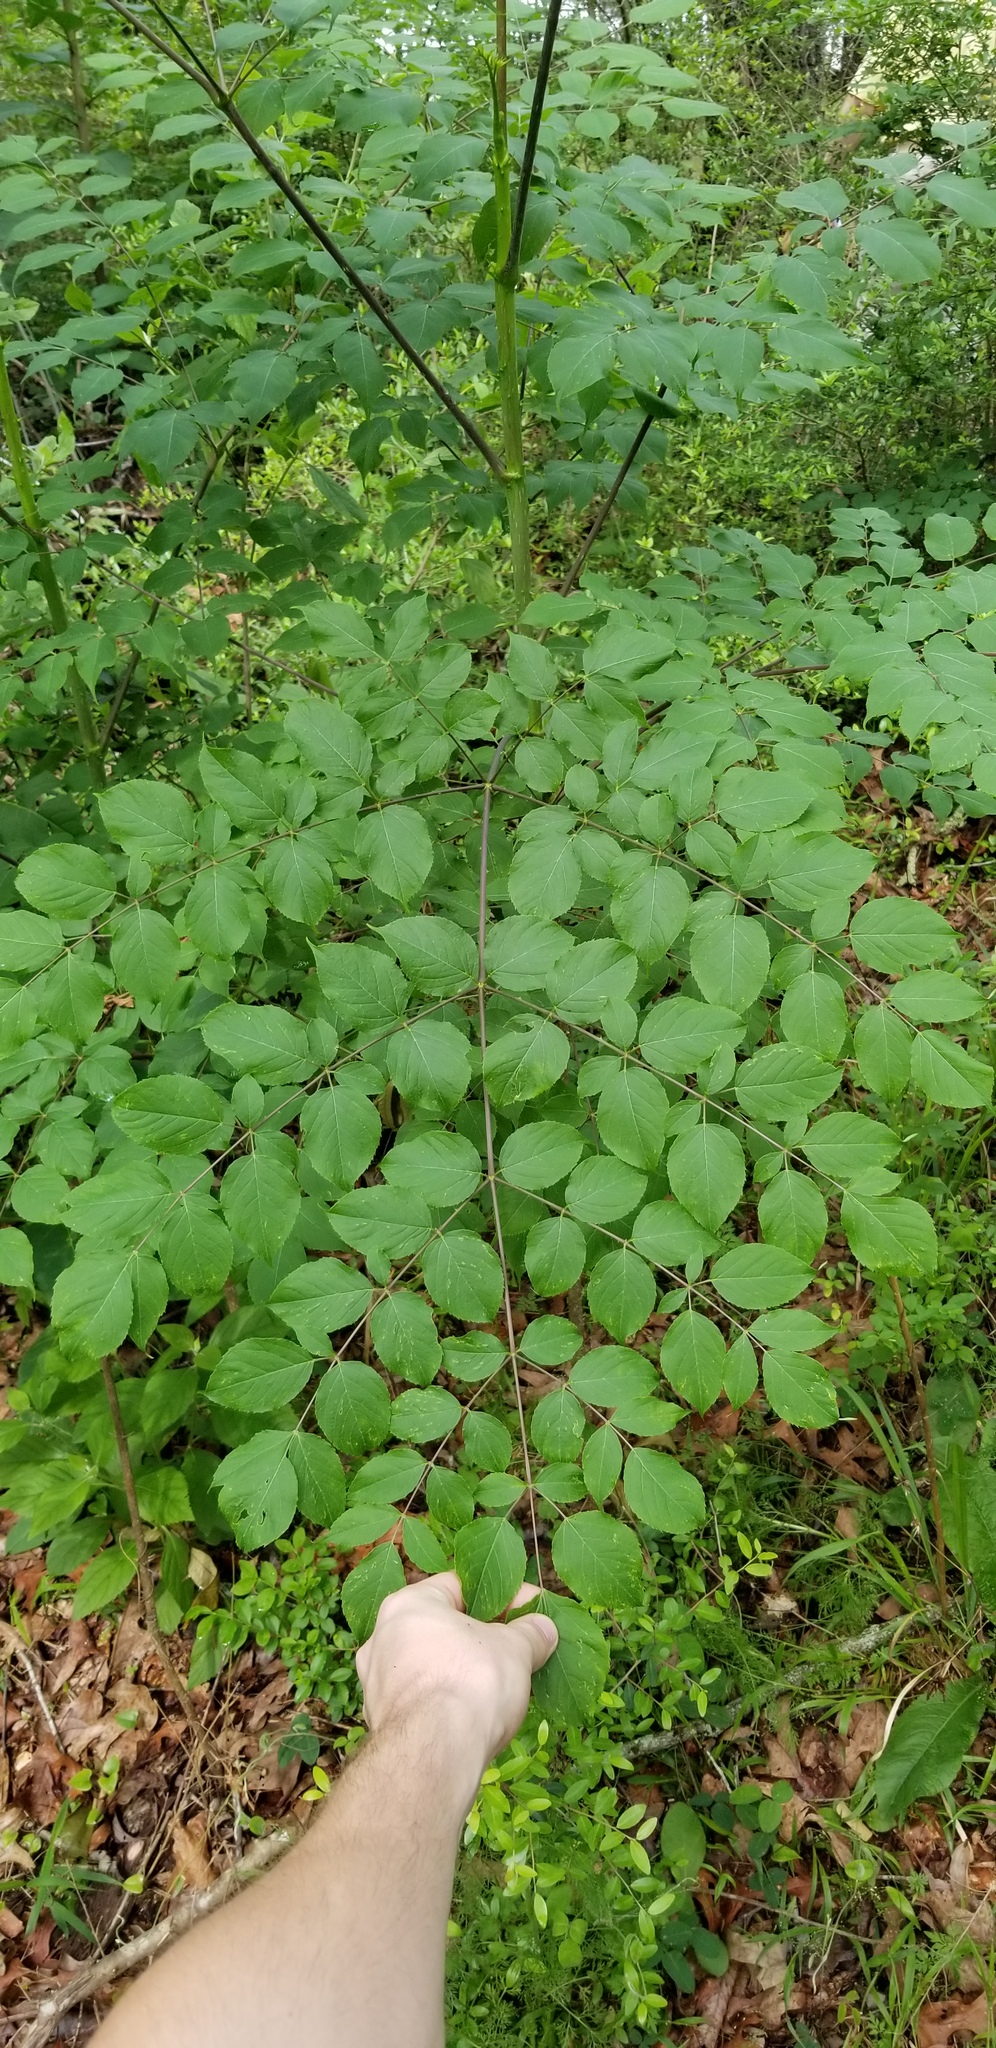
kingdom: Plantae
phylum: Tracheophyta
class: Magnoliopsida
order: Apiales
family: Araliaceae
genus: Aralia
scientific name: Aralia spinosa
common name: Hercules'-club
